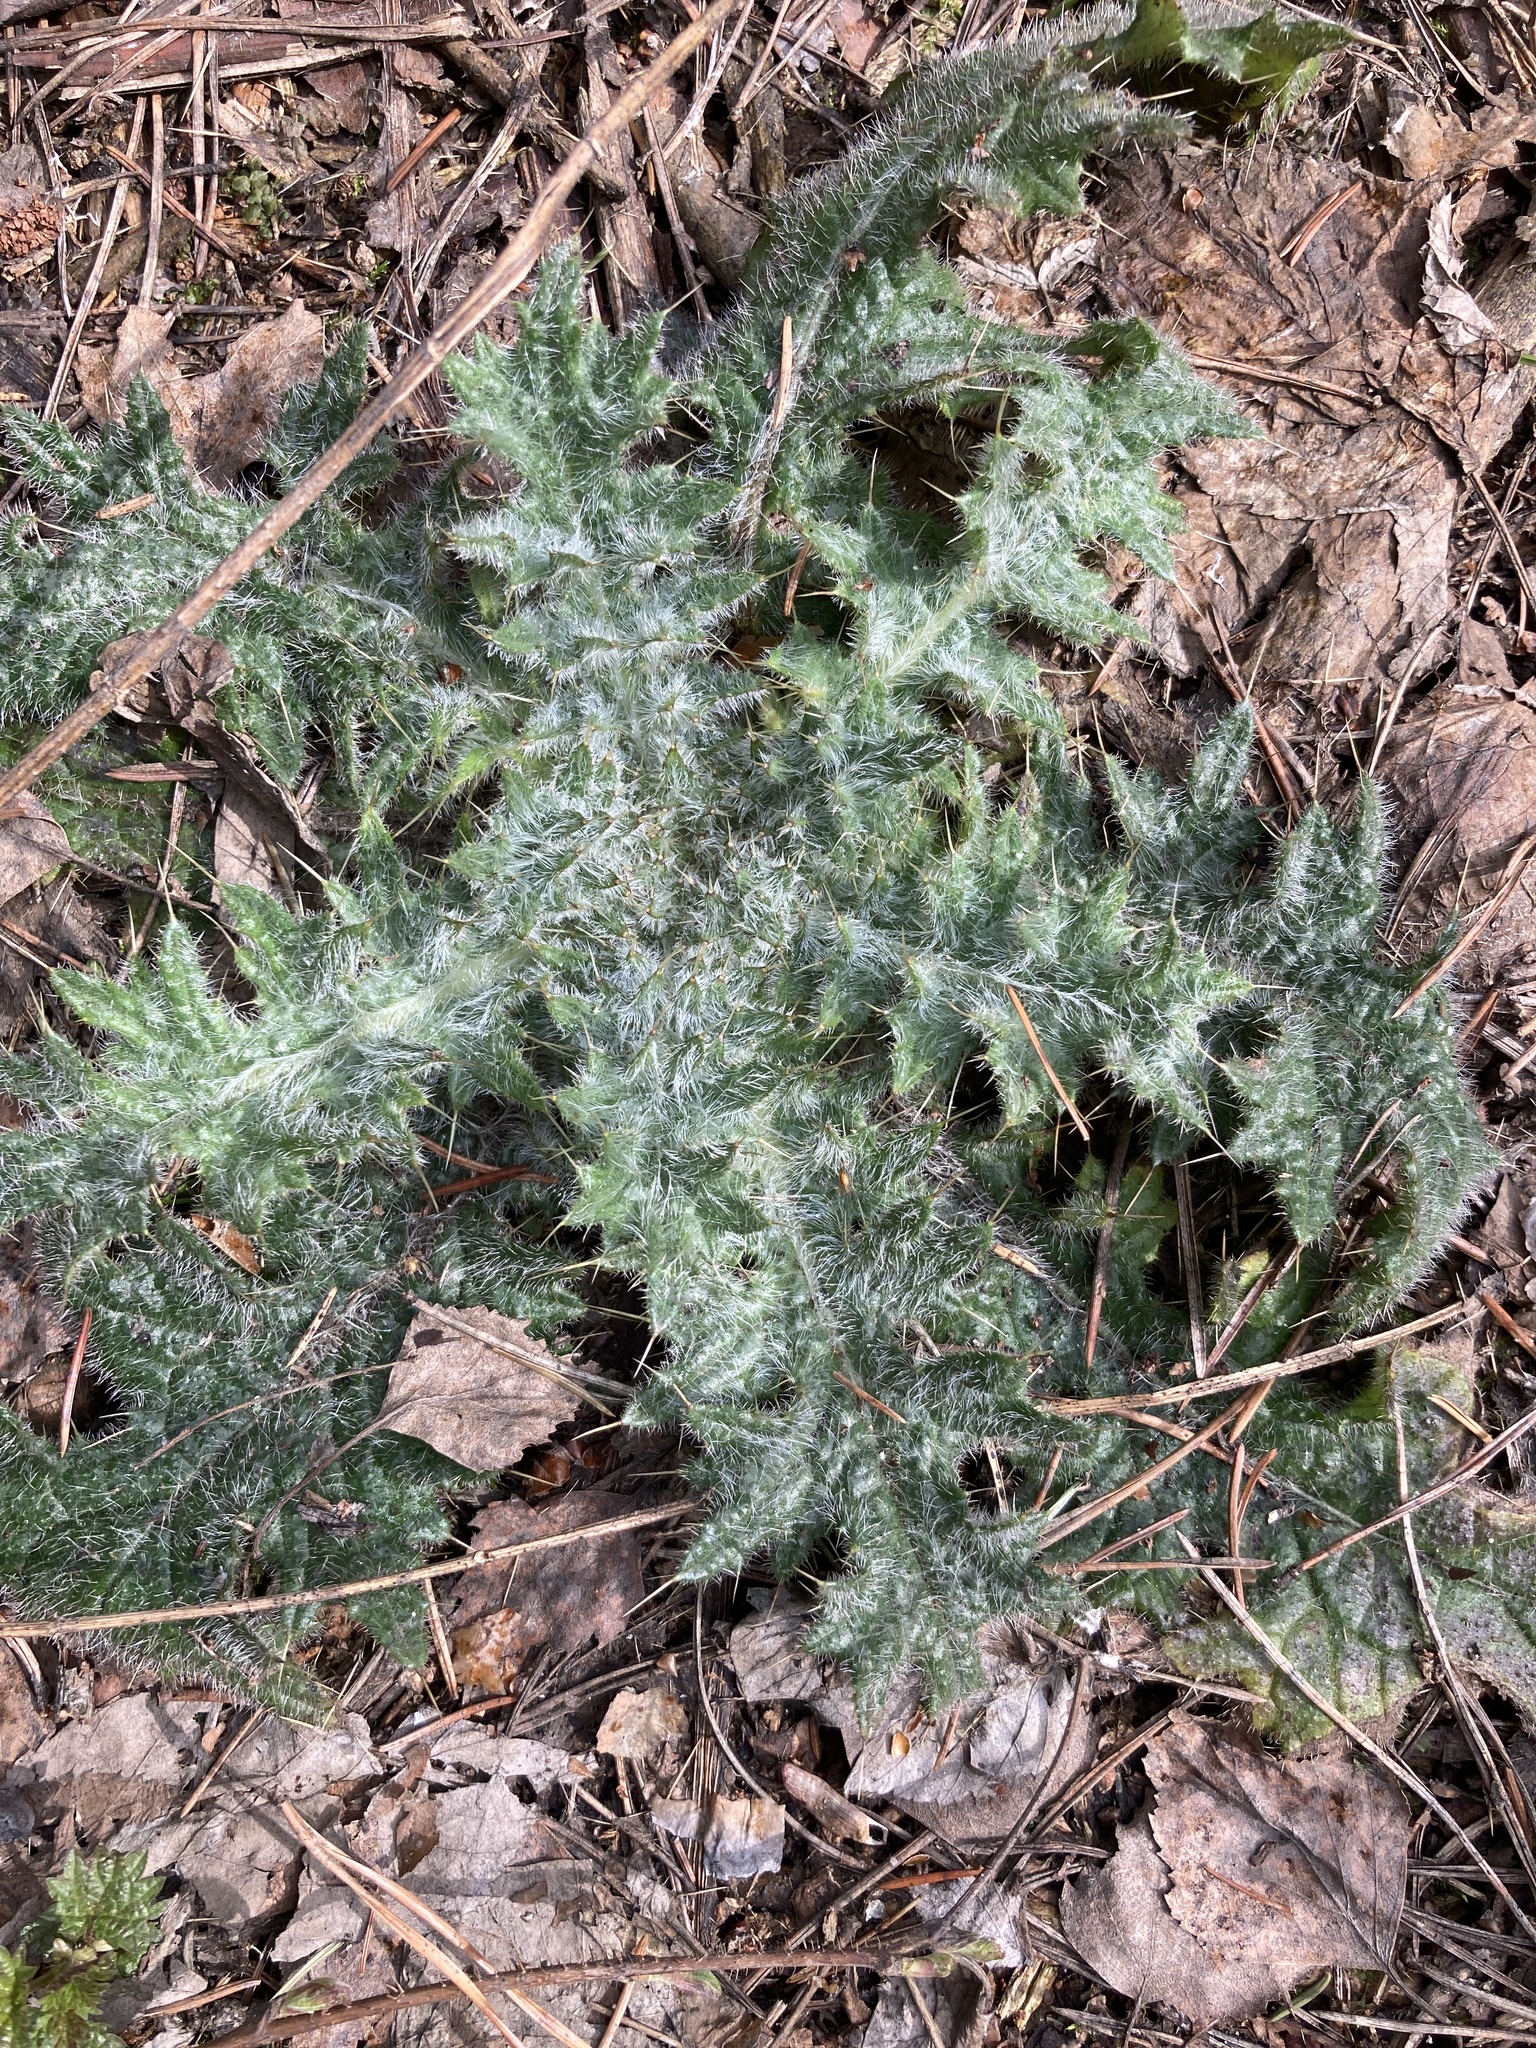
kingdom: Plantae
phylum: Tracheophyta
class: Magnoliopsida
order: Asterales
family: Asteraceae
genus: Cirsium
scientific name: Cirsium vulgare
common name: Bull thistle
